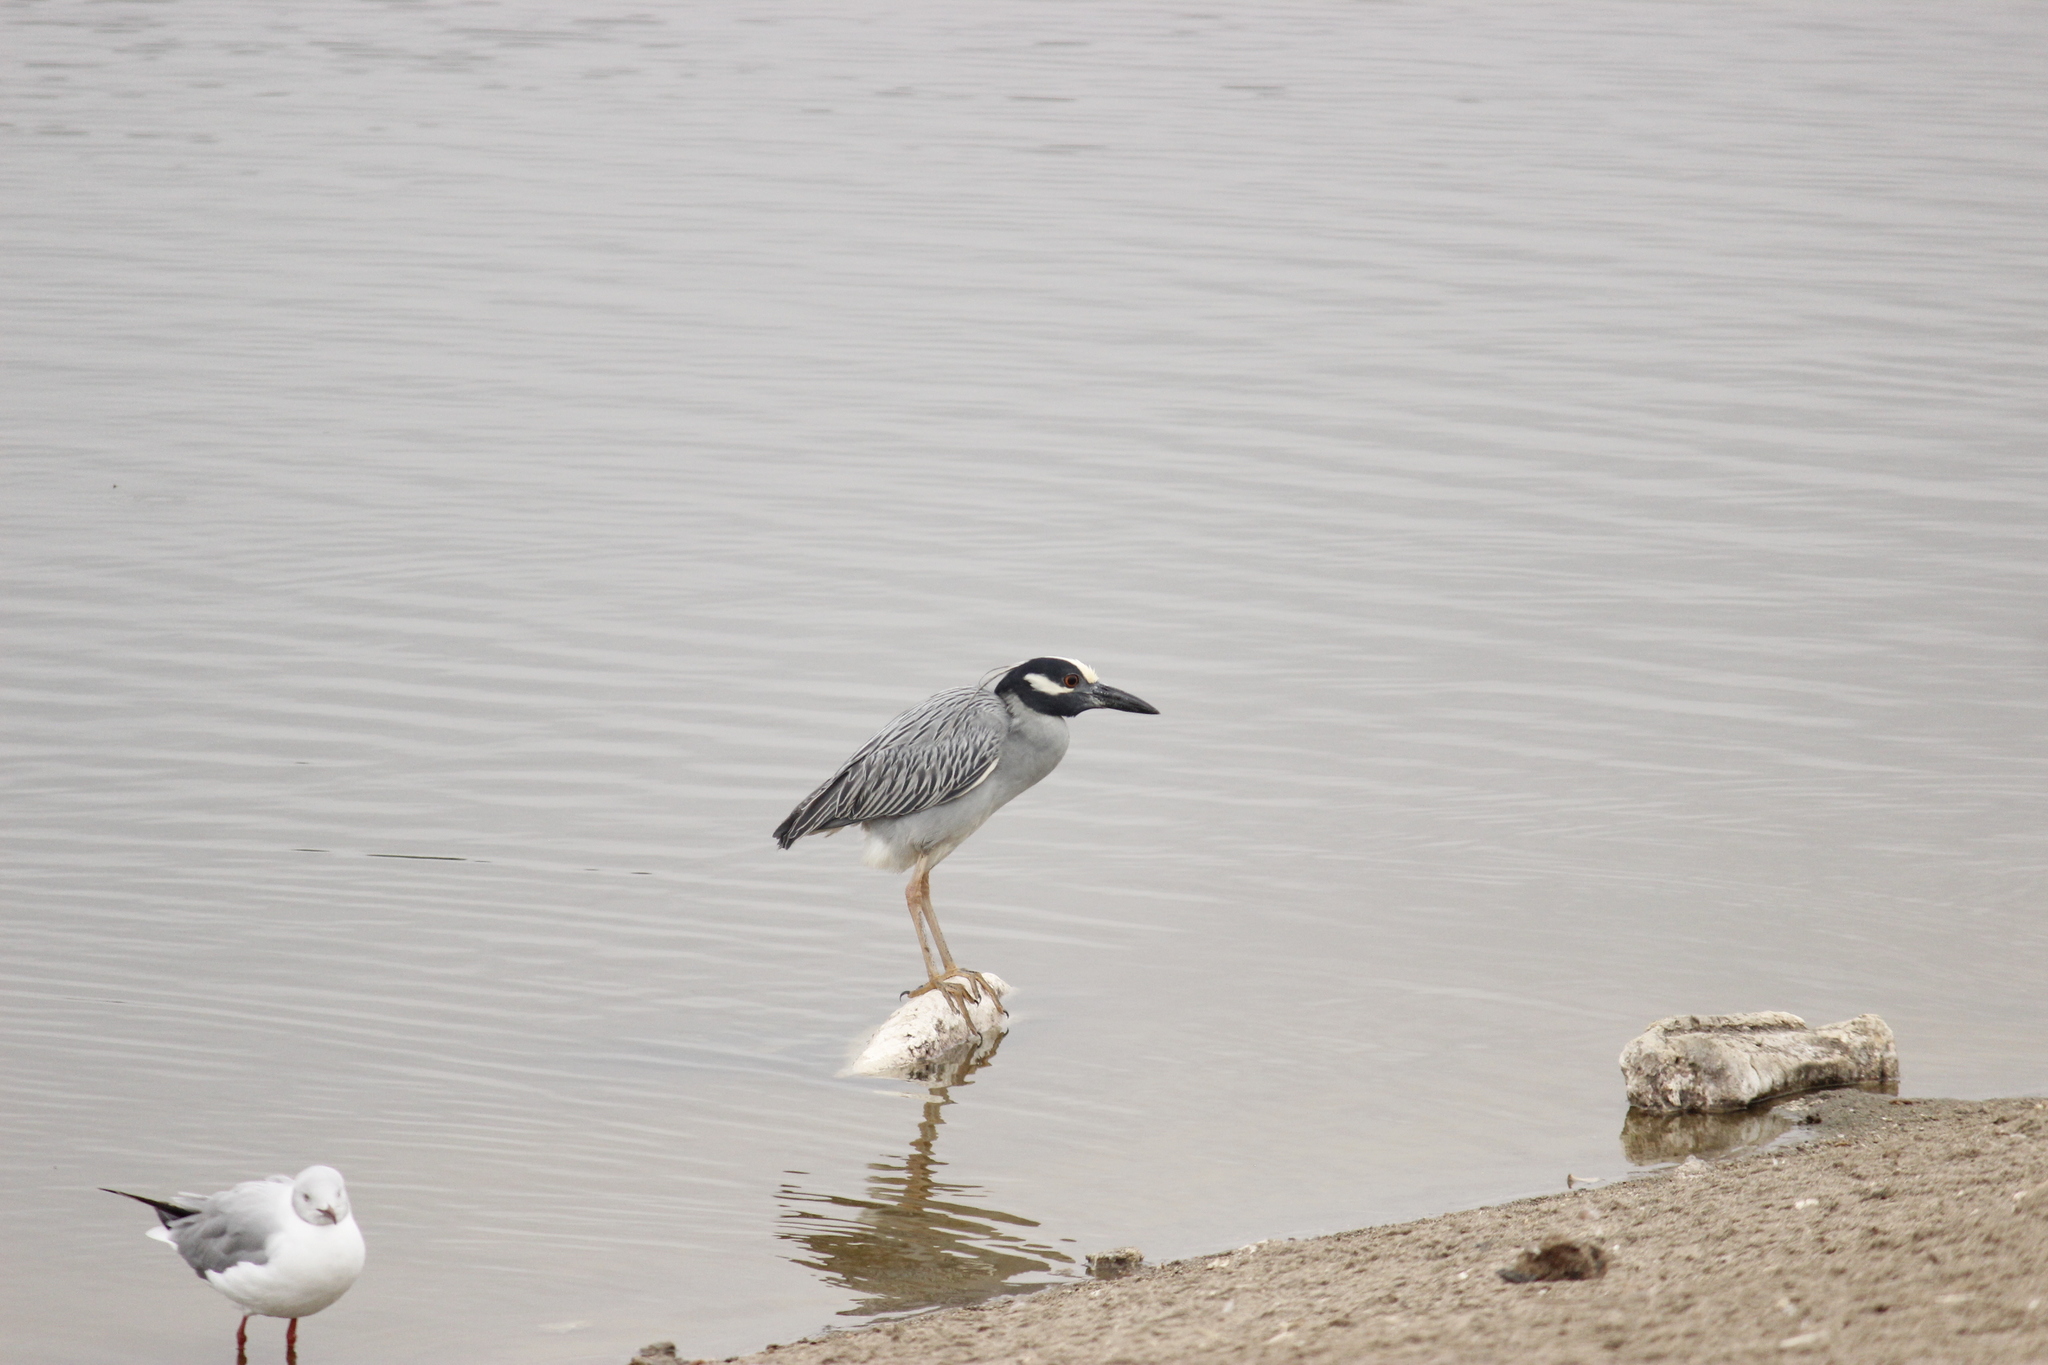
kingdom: Animalia
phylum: Chordata
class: Aves
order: Pelecaniformes
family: Ardeidae
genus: Nyctanassa
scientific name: Nyctanassa violacea
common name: Yellow-crowned night heron
